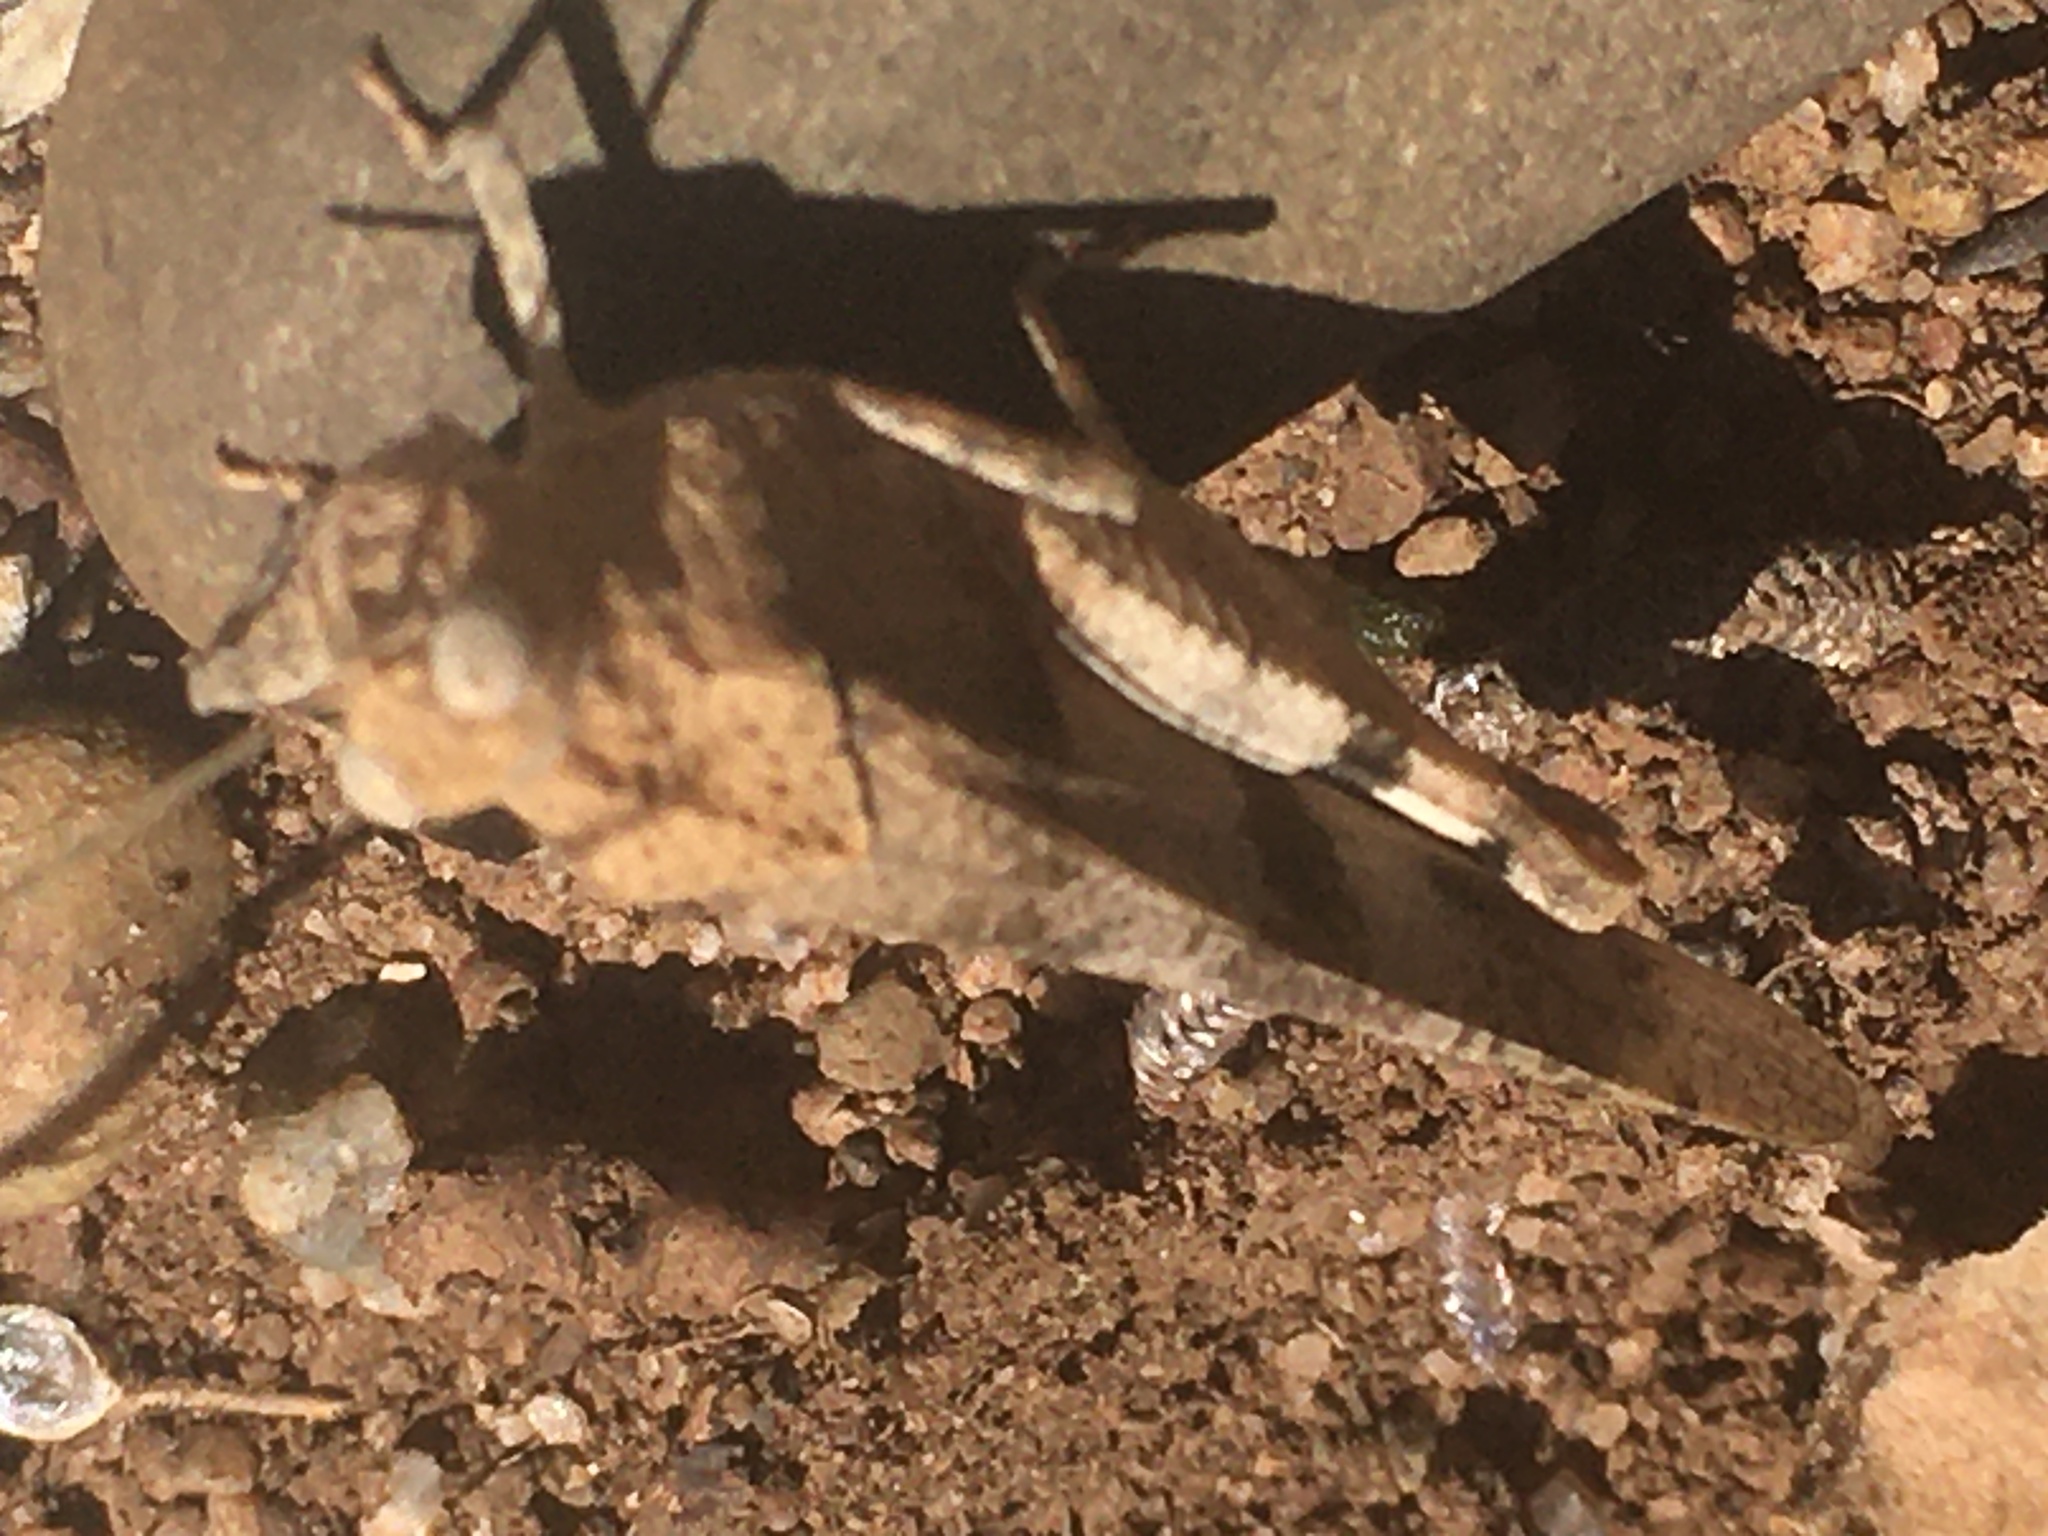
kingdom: Animalia
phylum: Arthropoda
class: Insecta
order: Orthoptera
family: Acrididae
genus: Oedipoda
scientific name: Oedipoda caerulescens
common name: Blue-winged grasshopper
